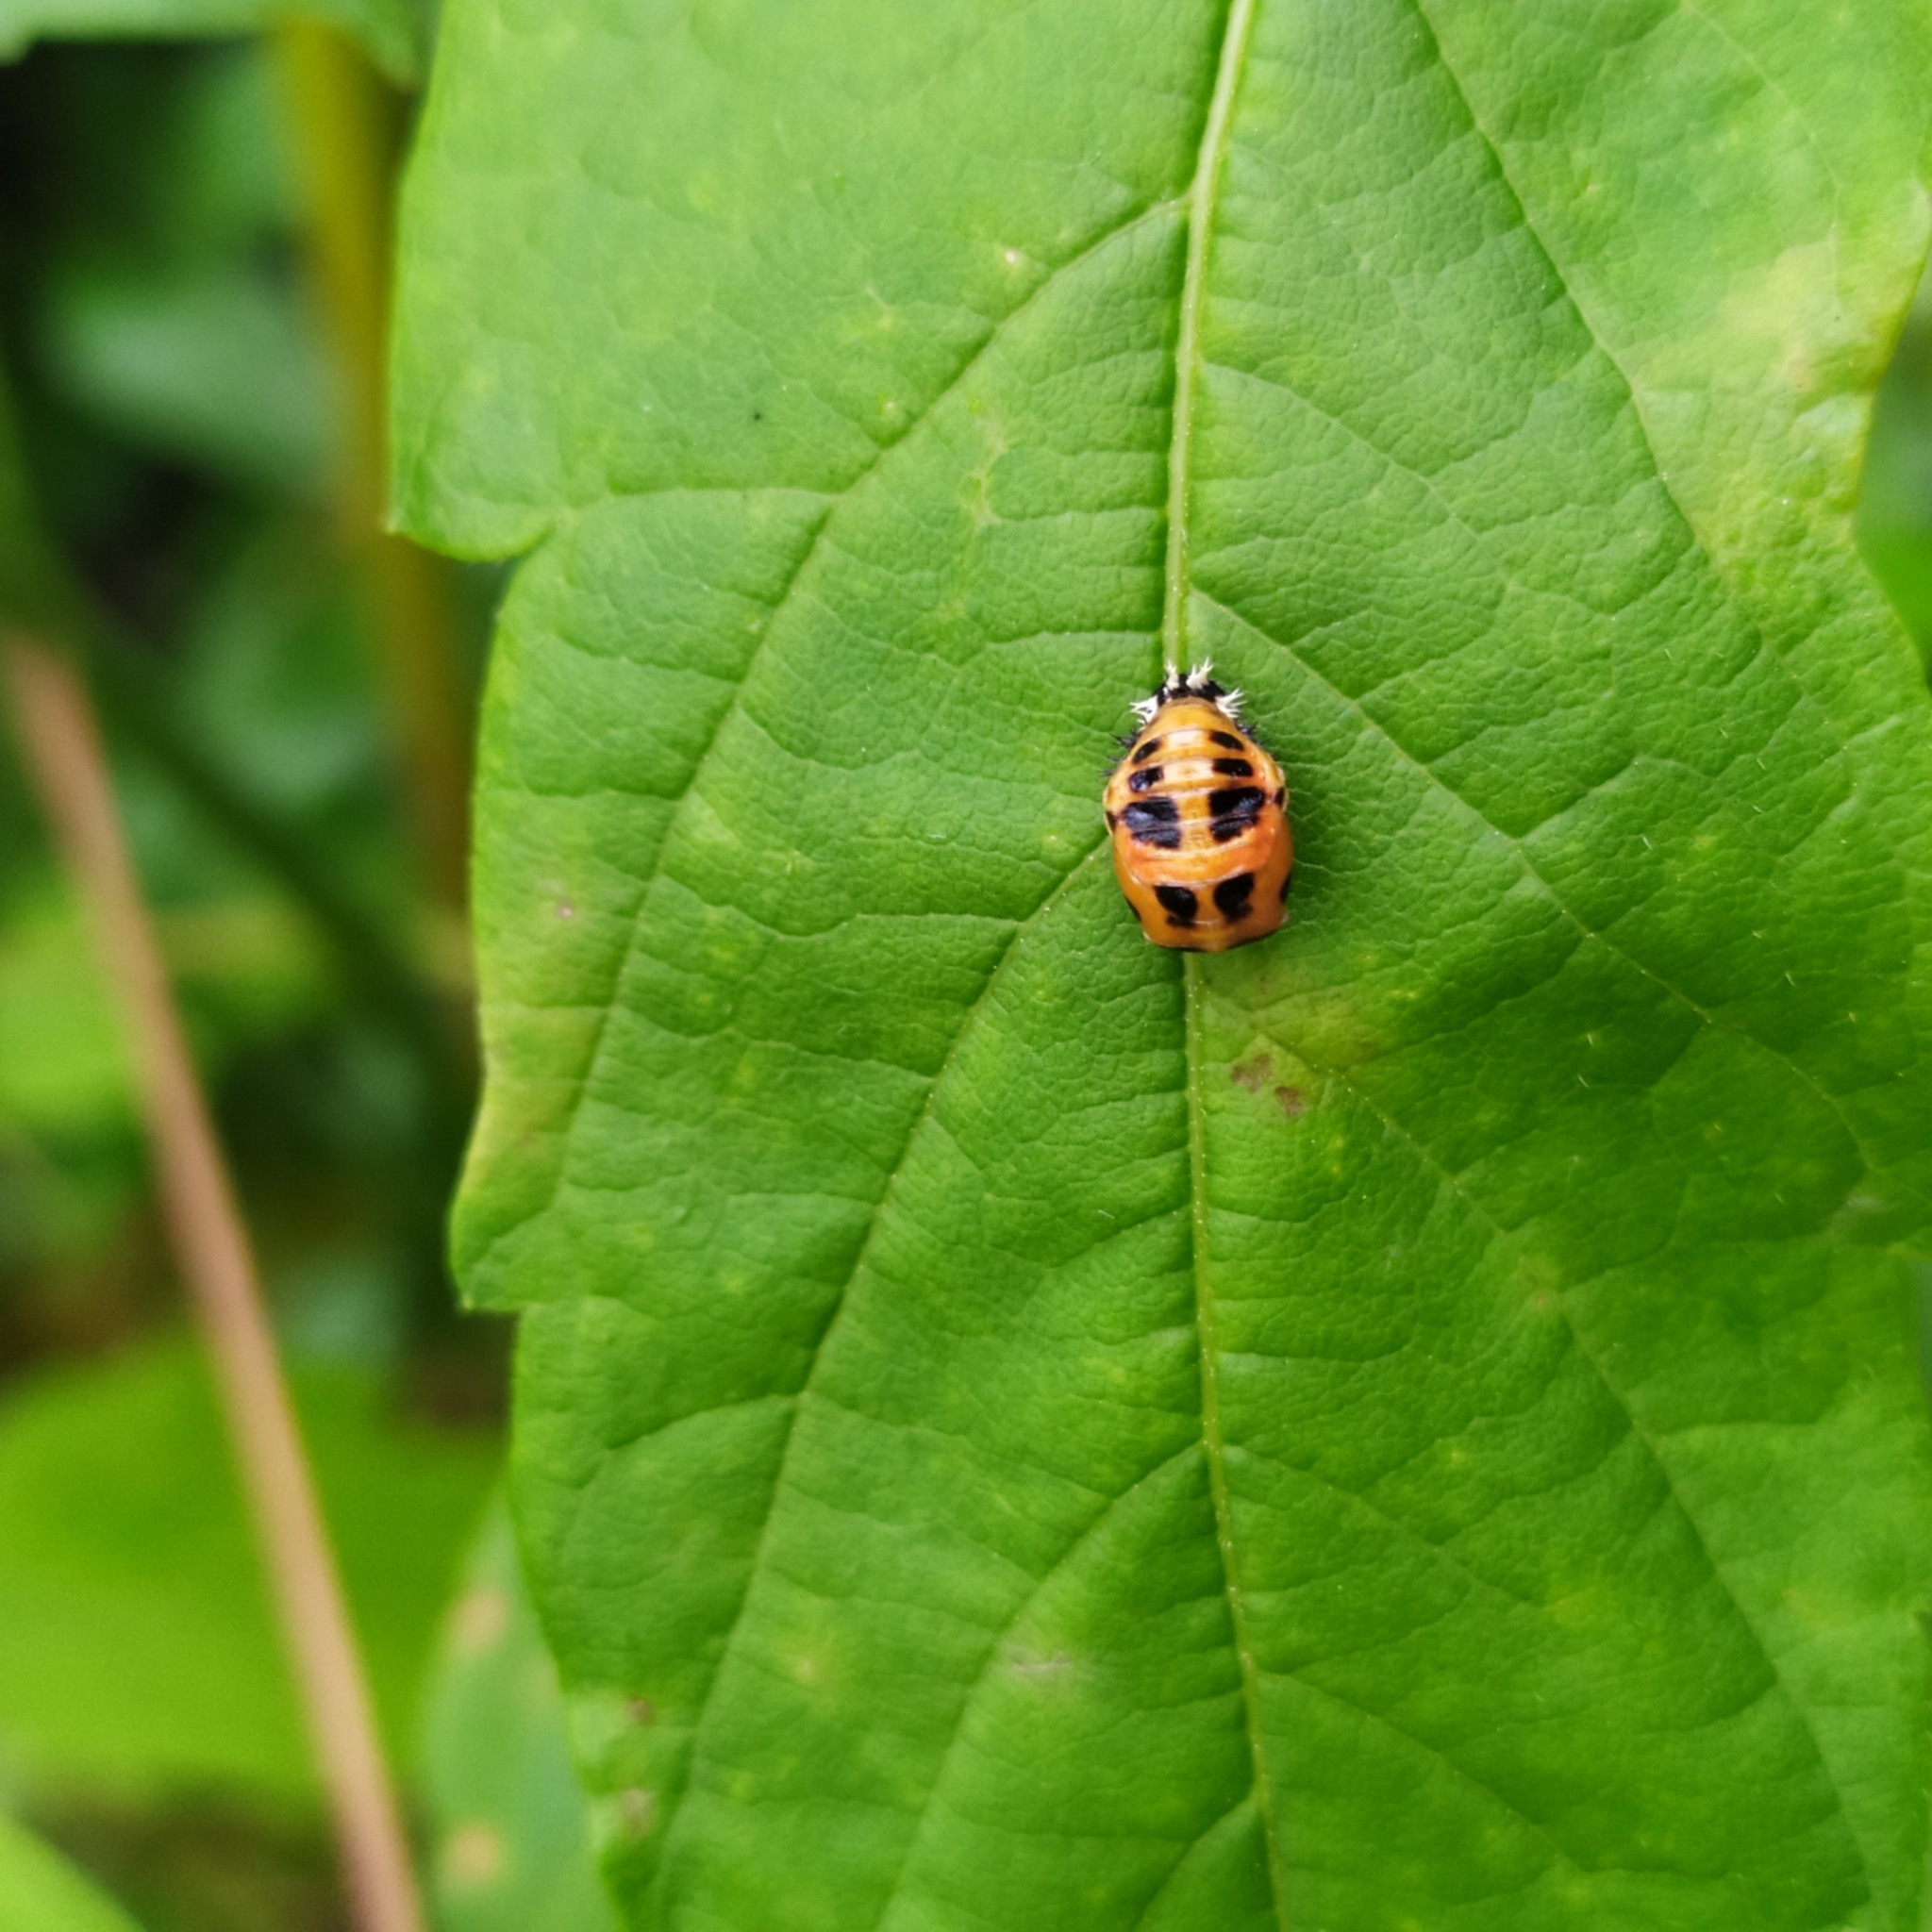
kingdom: Animalia
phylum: Arthropoda
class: Insecta
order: Coleoptera
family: Coccinellidae
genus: Harmonia
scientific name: Harmonia axyridis
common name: Harlequin ladybird
